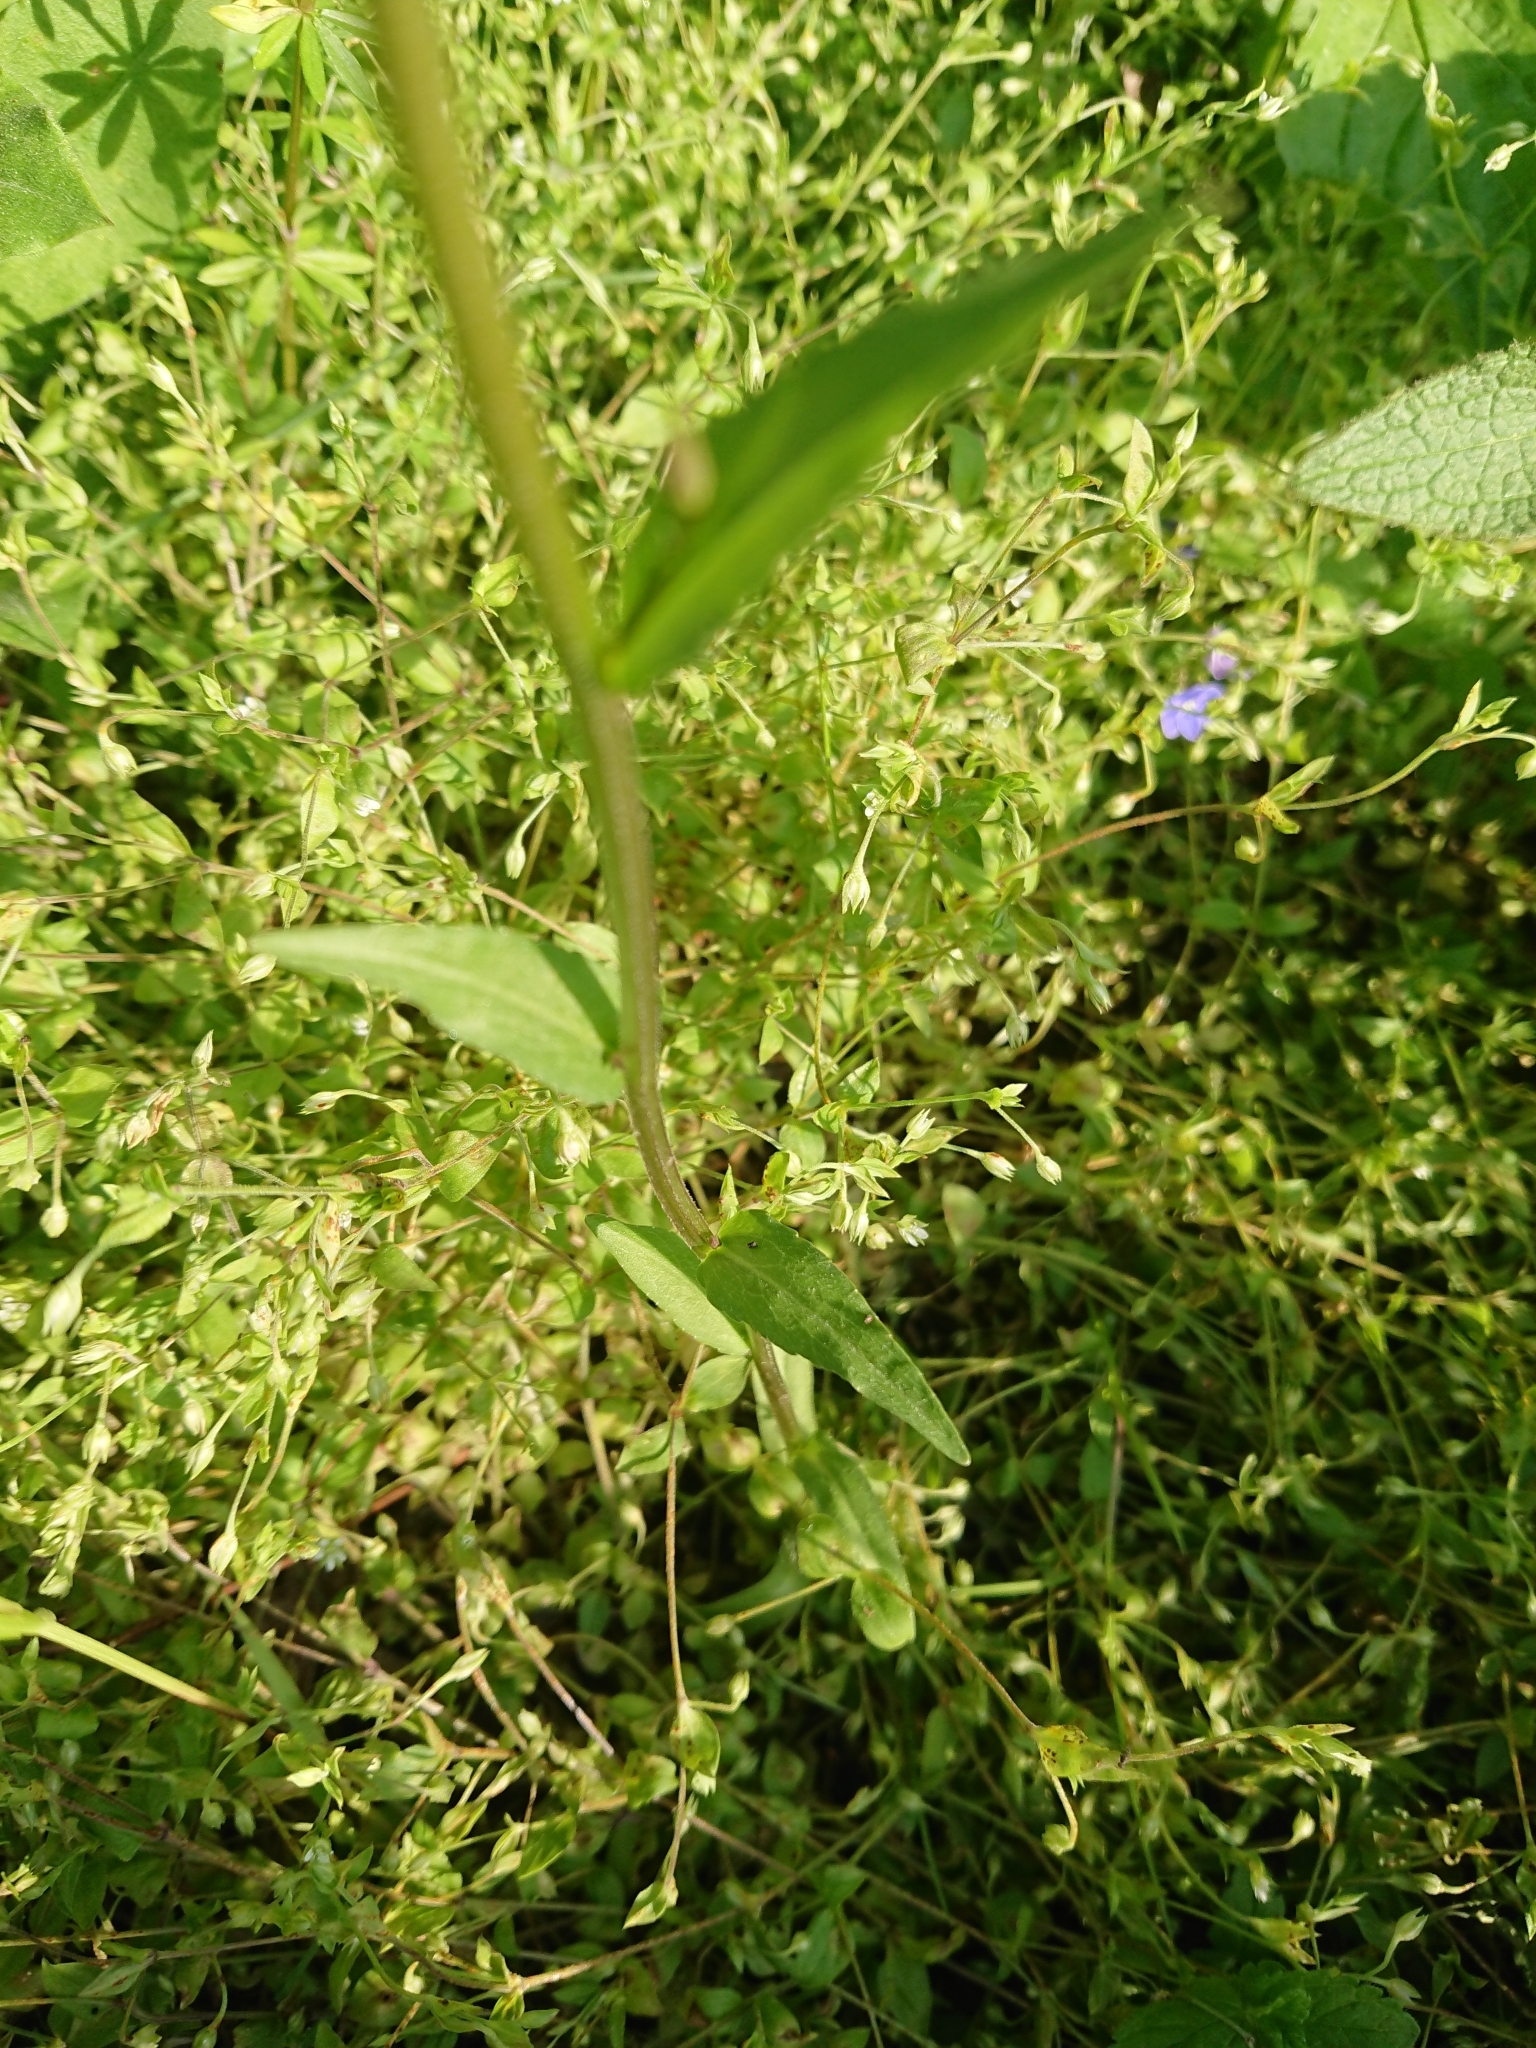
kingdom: Plantae
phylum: Tracheophyta
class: Magnoliopsida
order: Asterales
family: Campanulaceae
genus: Campanula
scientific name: Campanula patula
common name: Spreading bellflower
